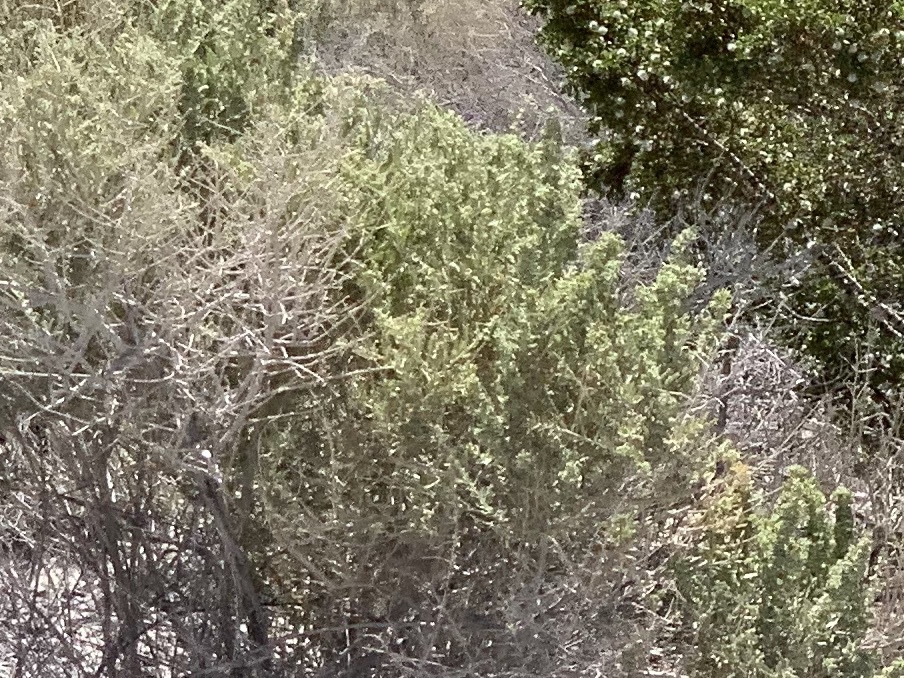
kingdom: Plantae
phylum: Tracheophyta
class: Magnoliopsida
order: Caryophyllales
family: Amaranthaceae
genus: Atriplex
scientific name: Atriplex canescens
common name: Four-wing saltbush
